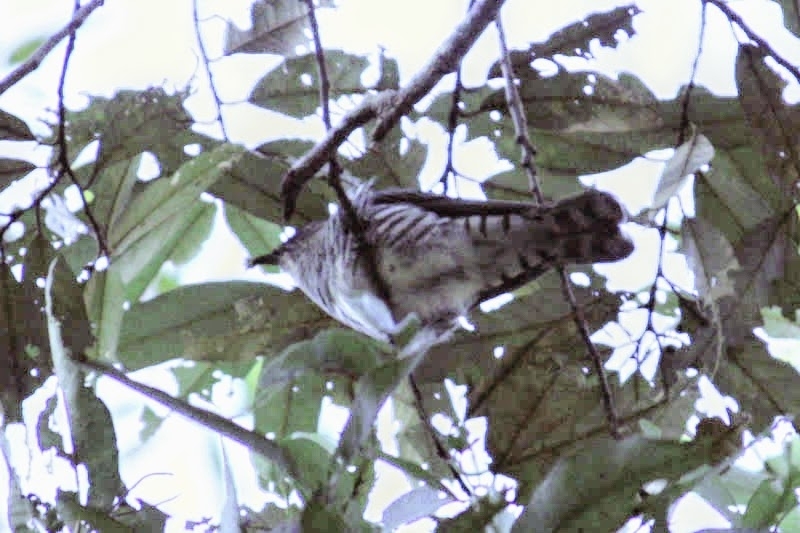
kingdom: Animalia
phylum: Chordata
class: Aves
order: Cuculiformes
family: Cuculidae
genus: Chrysococcyx
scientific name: Chrysococcyx lucidus
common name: Shining bronze cuckoo
